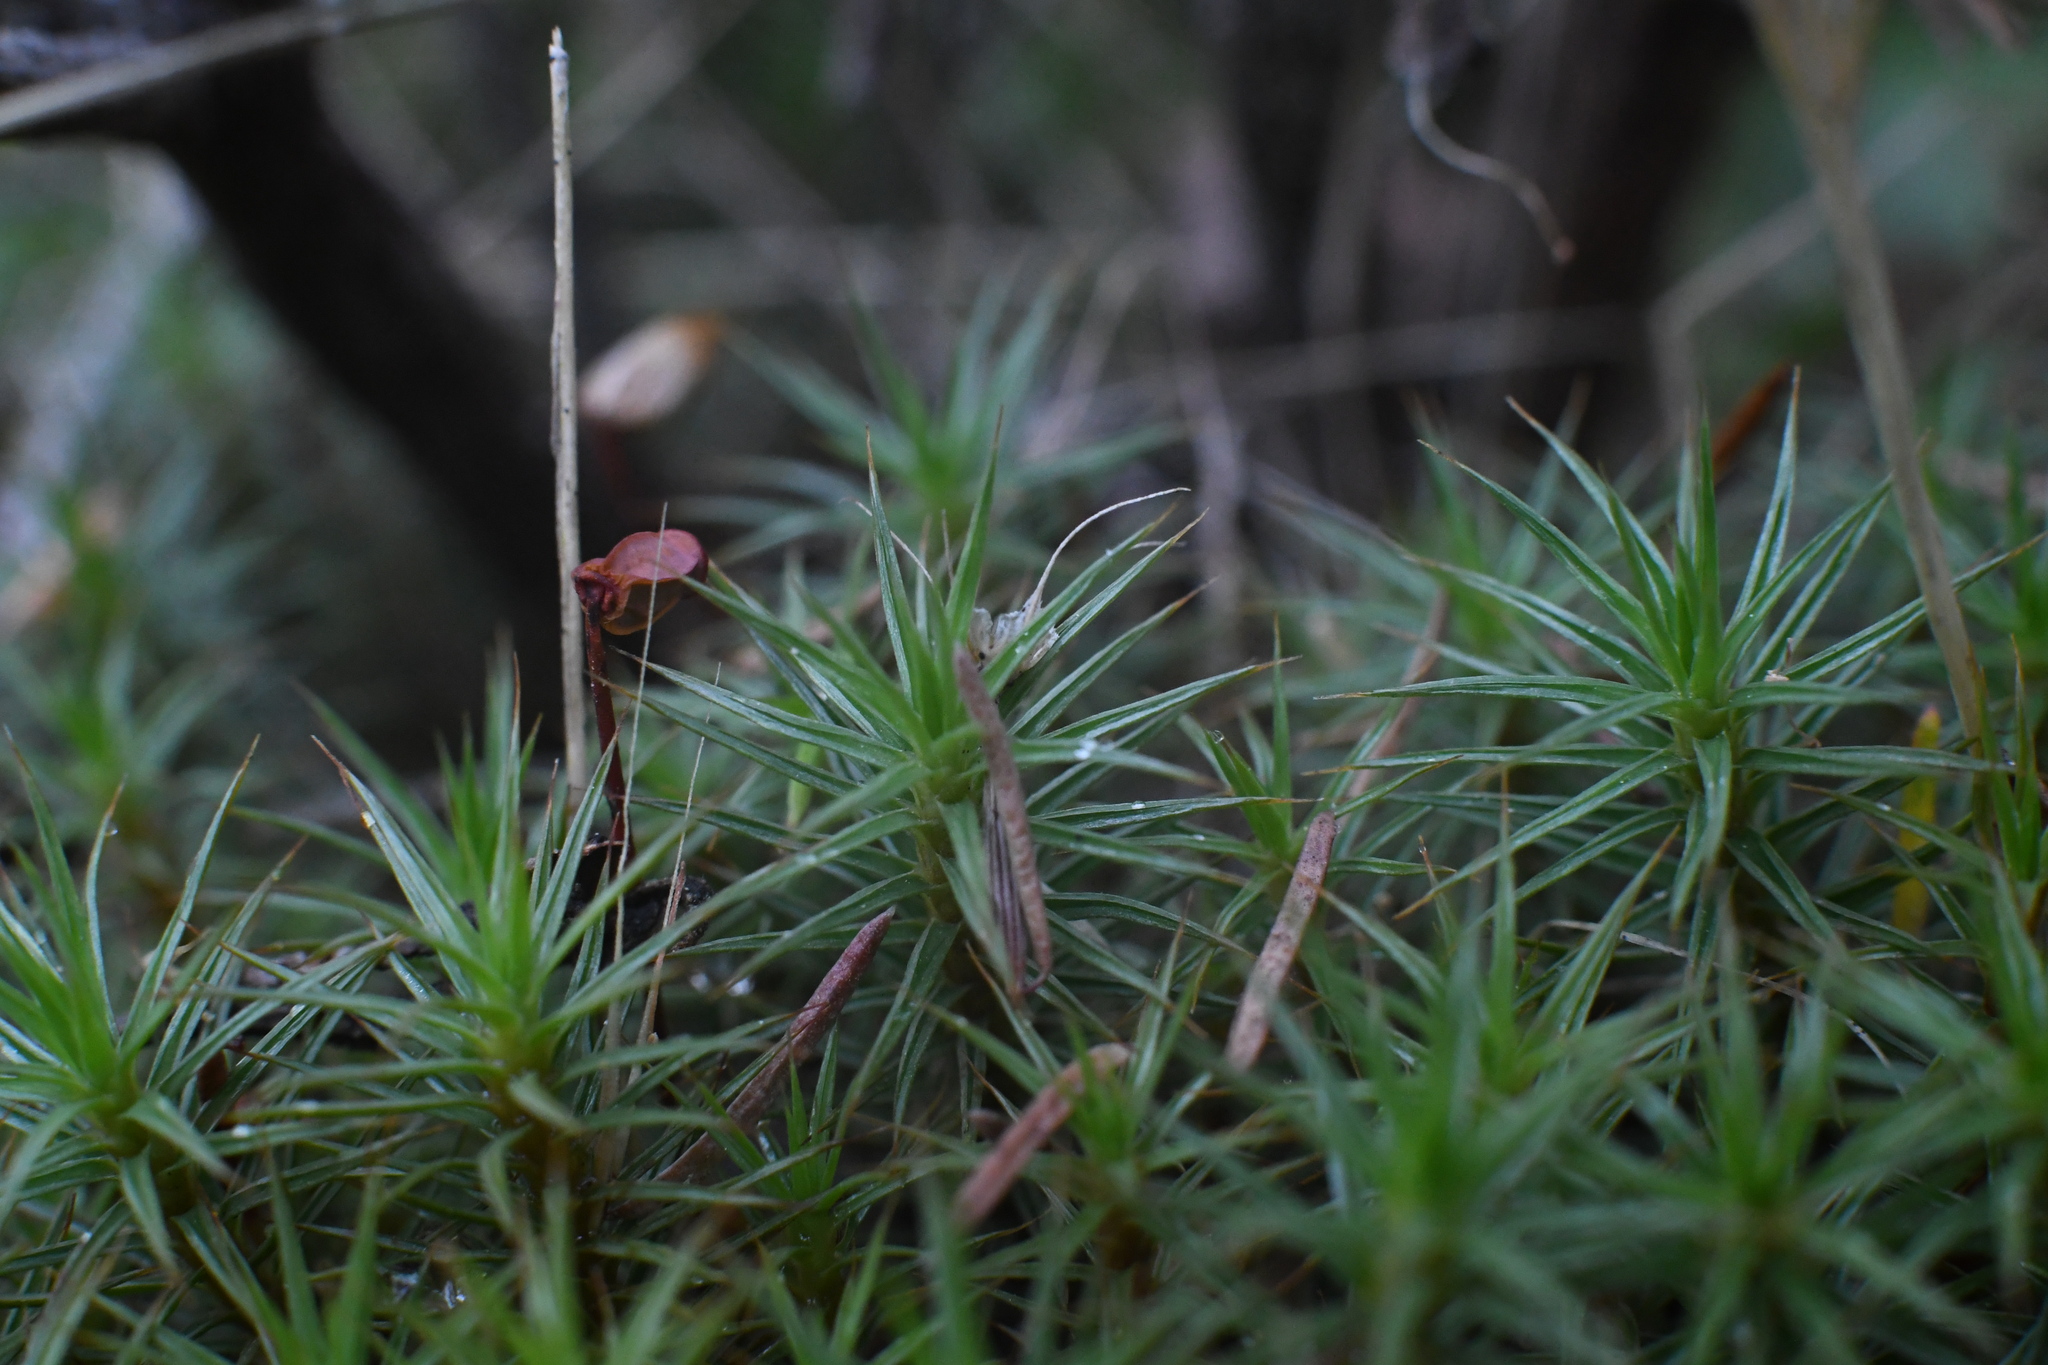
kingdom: Plantae
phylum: Bryophyta
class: Polytrichopsida
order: Polytrichales
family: Polytrichaceae
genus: Polytrichum
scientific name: Polytrichum juniperinum
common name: Juniper haircap moss
